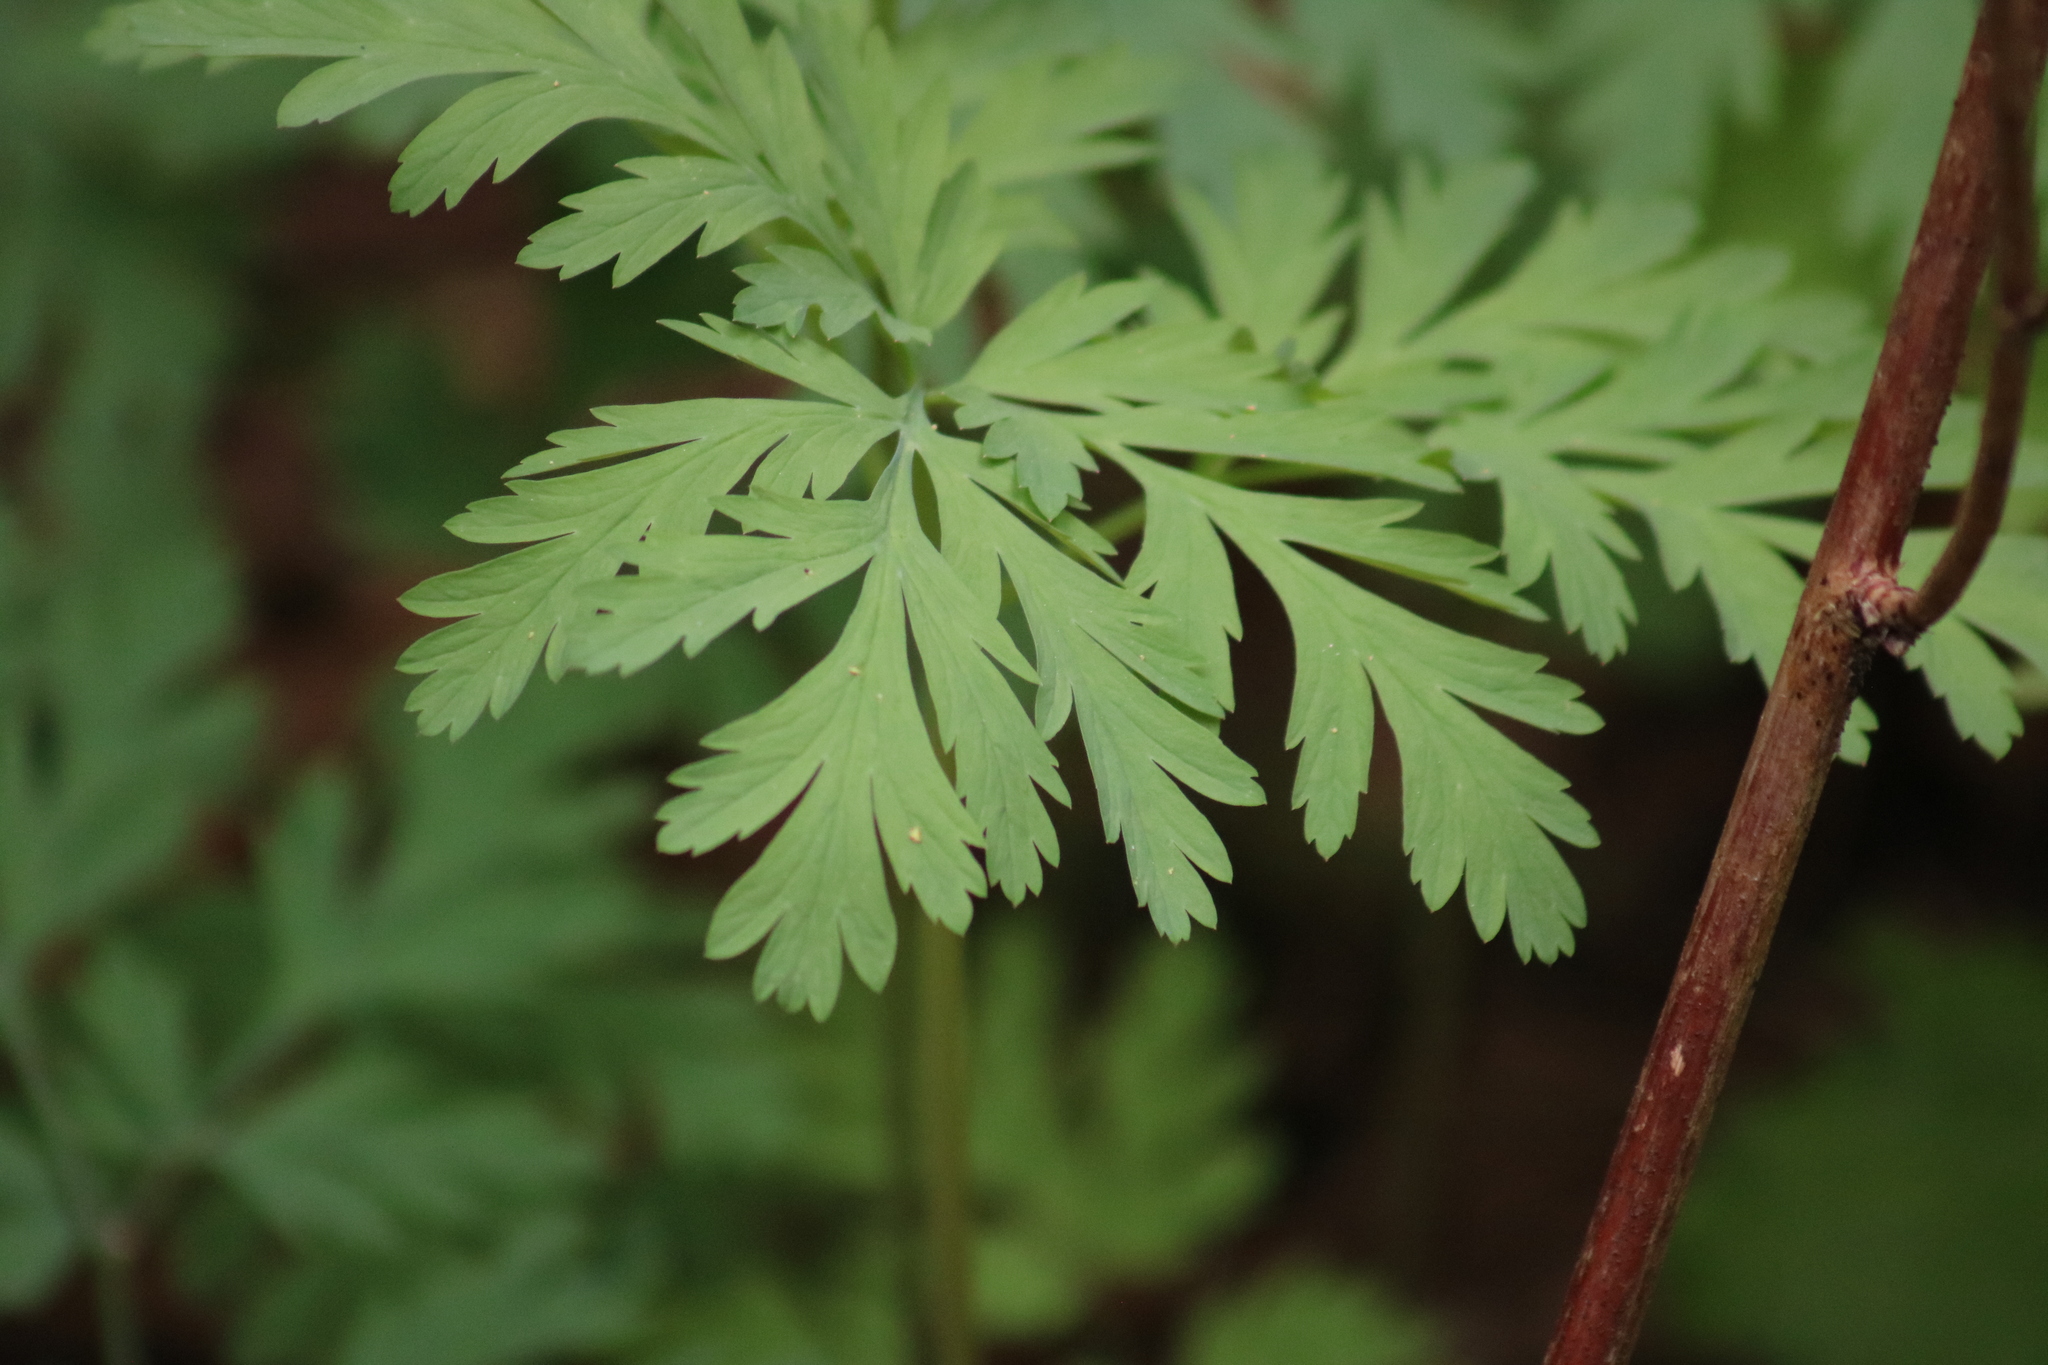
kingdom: Plantae
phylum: Tracheophyta
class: Magnoliopsida
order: Ranunculales
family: Papaveraceae
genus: Dicentra
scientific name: Dicentra formosa
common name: Bleeding-heart
